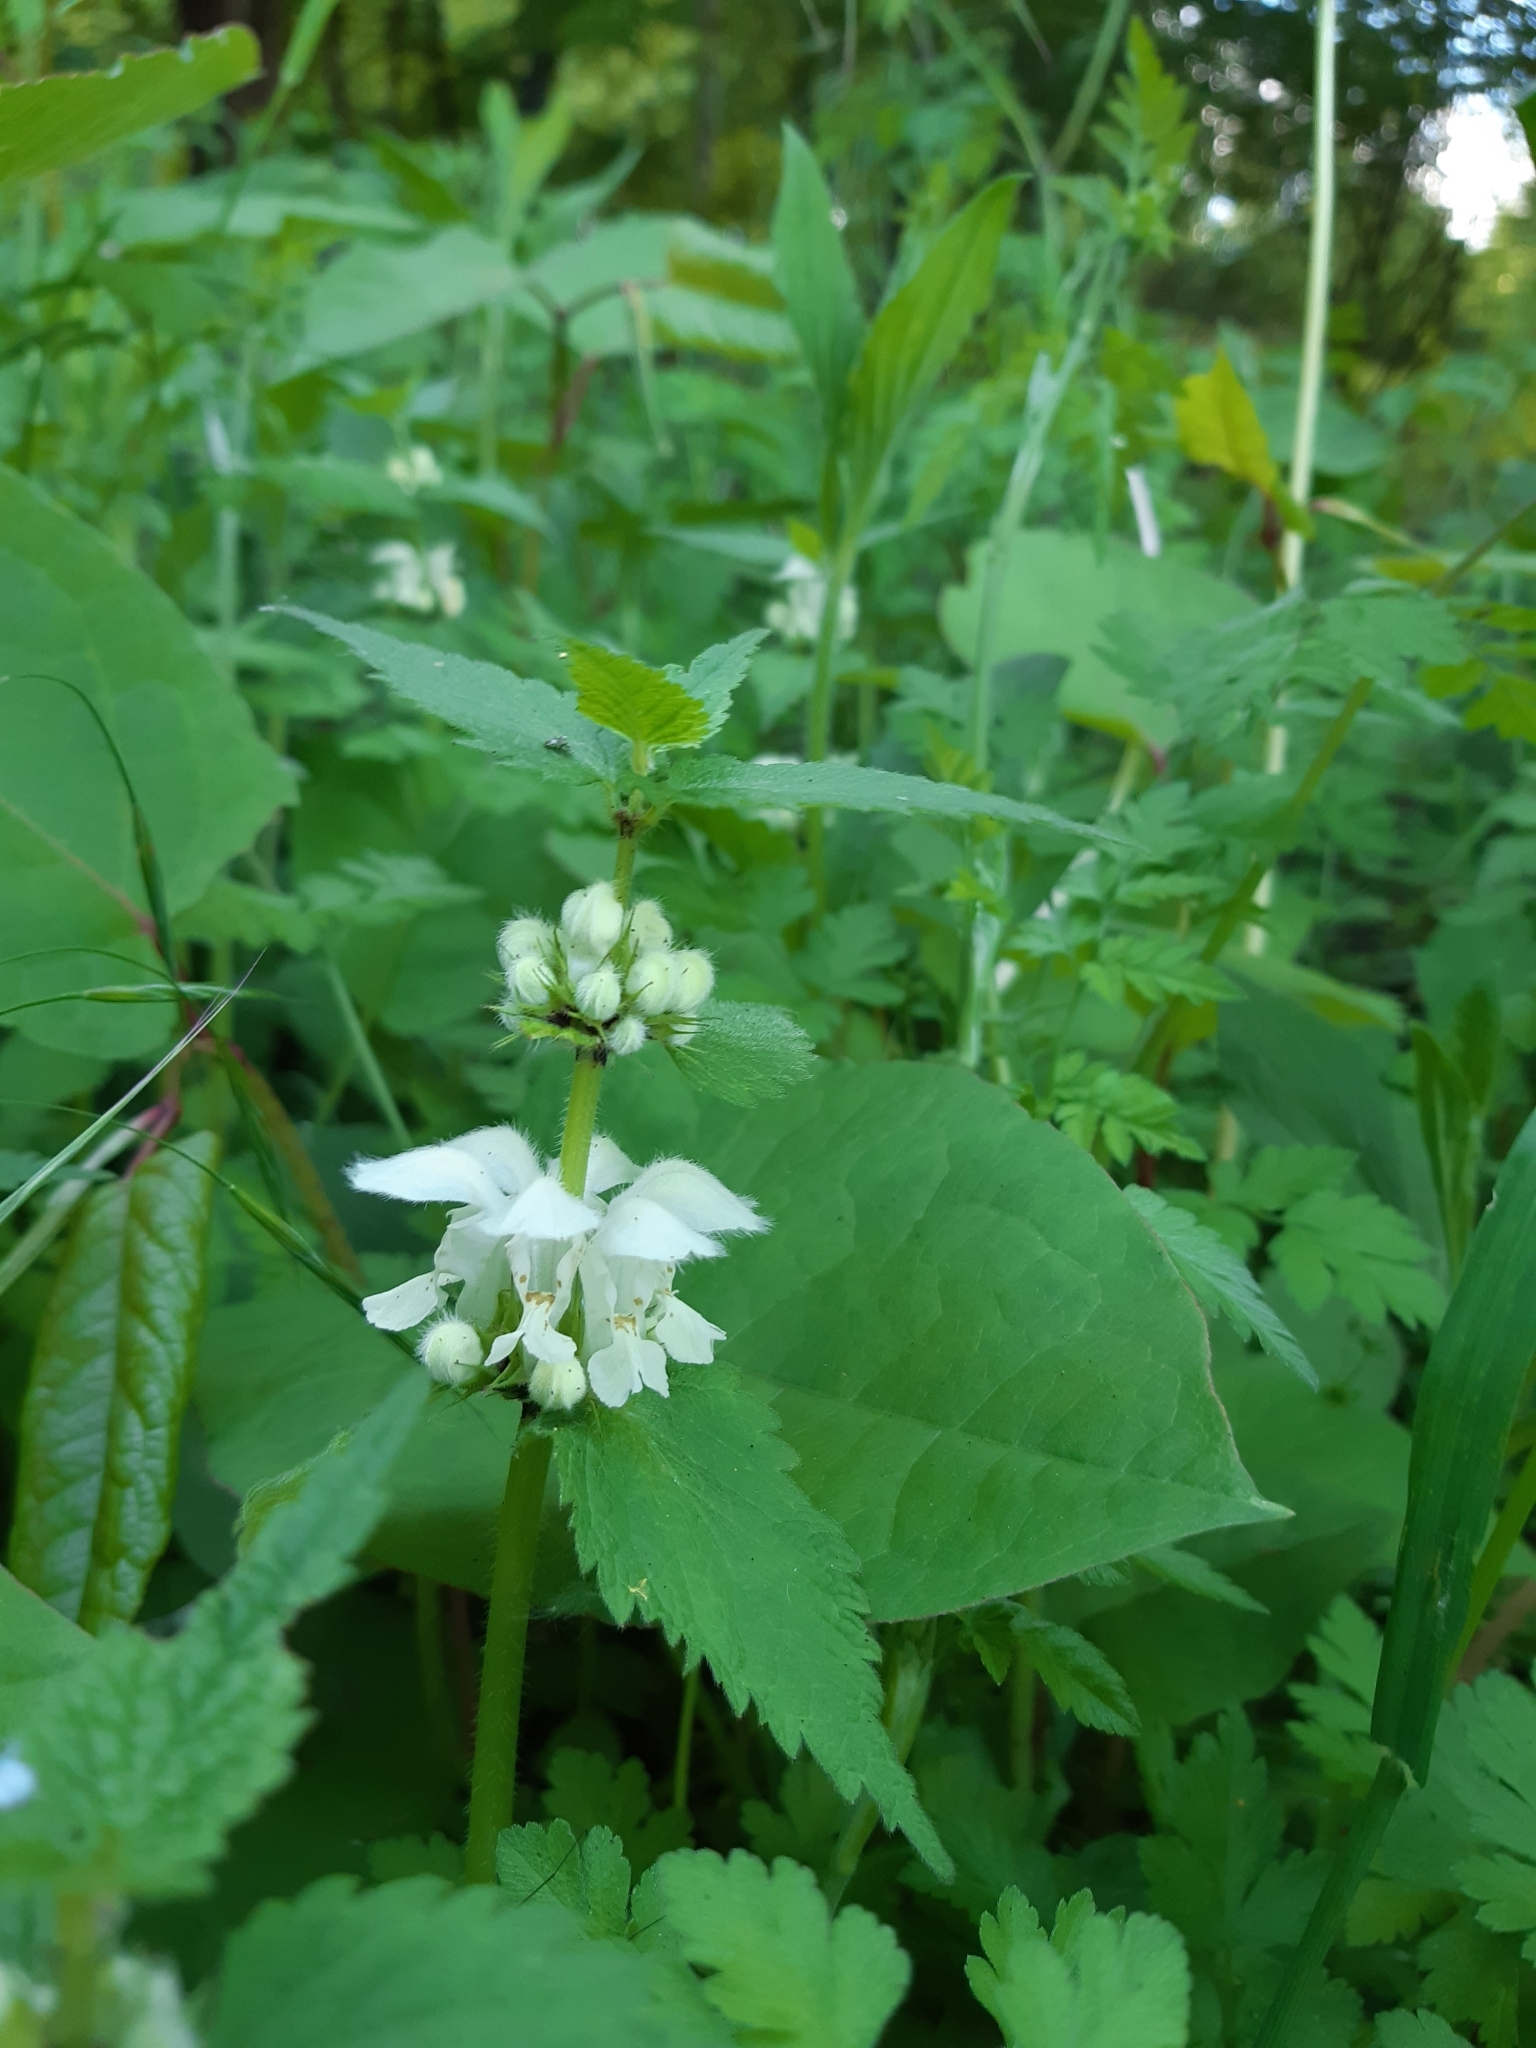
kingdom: Plantae
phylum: Tracheophyta
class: Magnoliopsida
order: Lamiales
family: Lamiaceae
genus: Lamium
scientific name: Lamium album
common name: White dead-nettle
